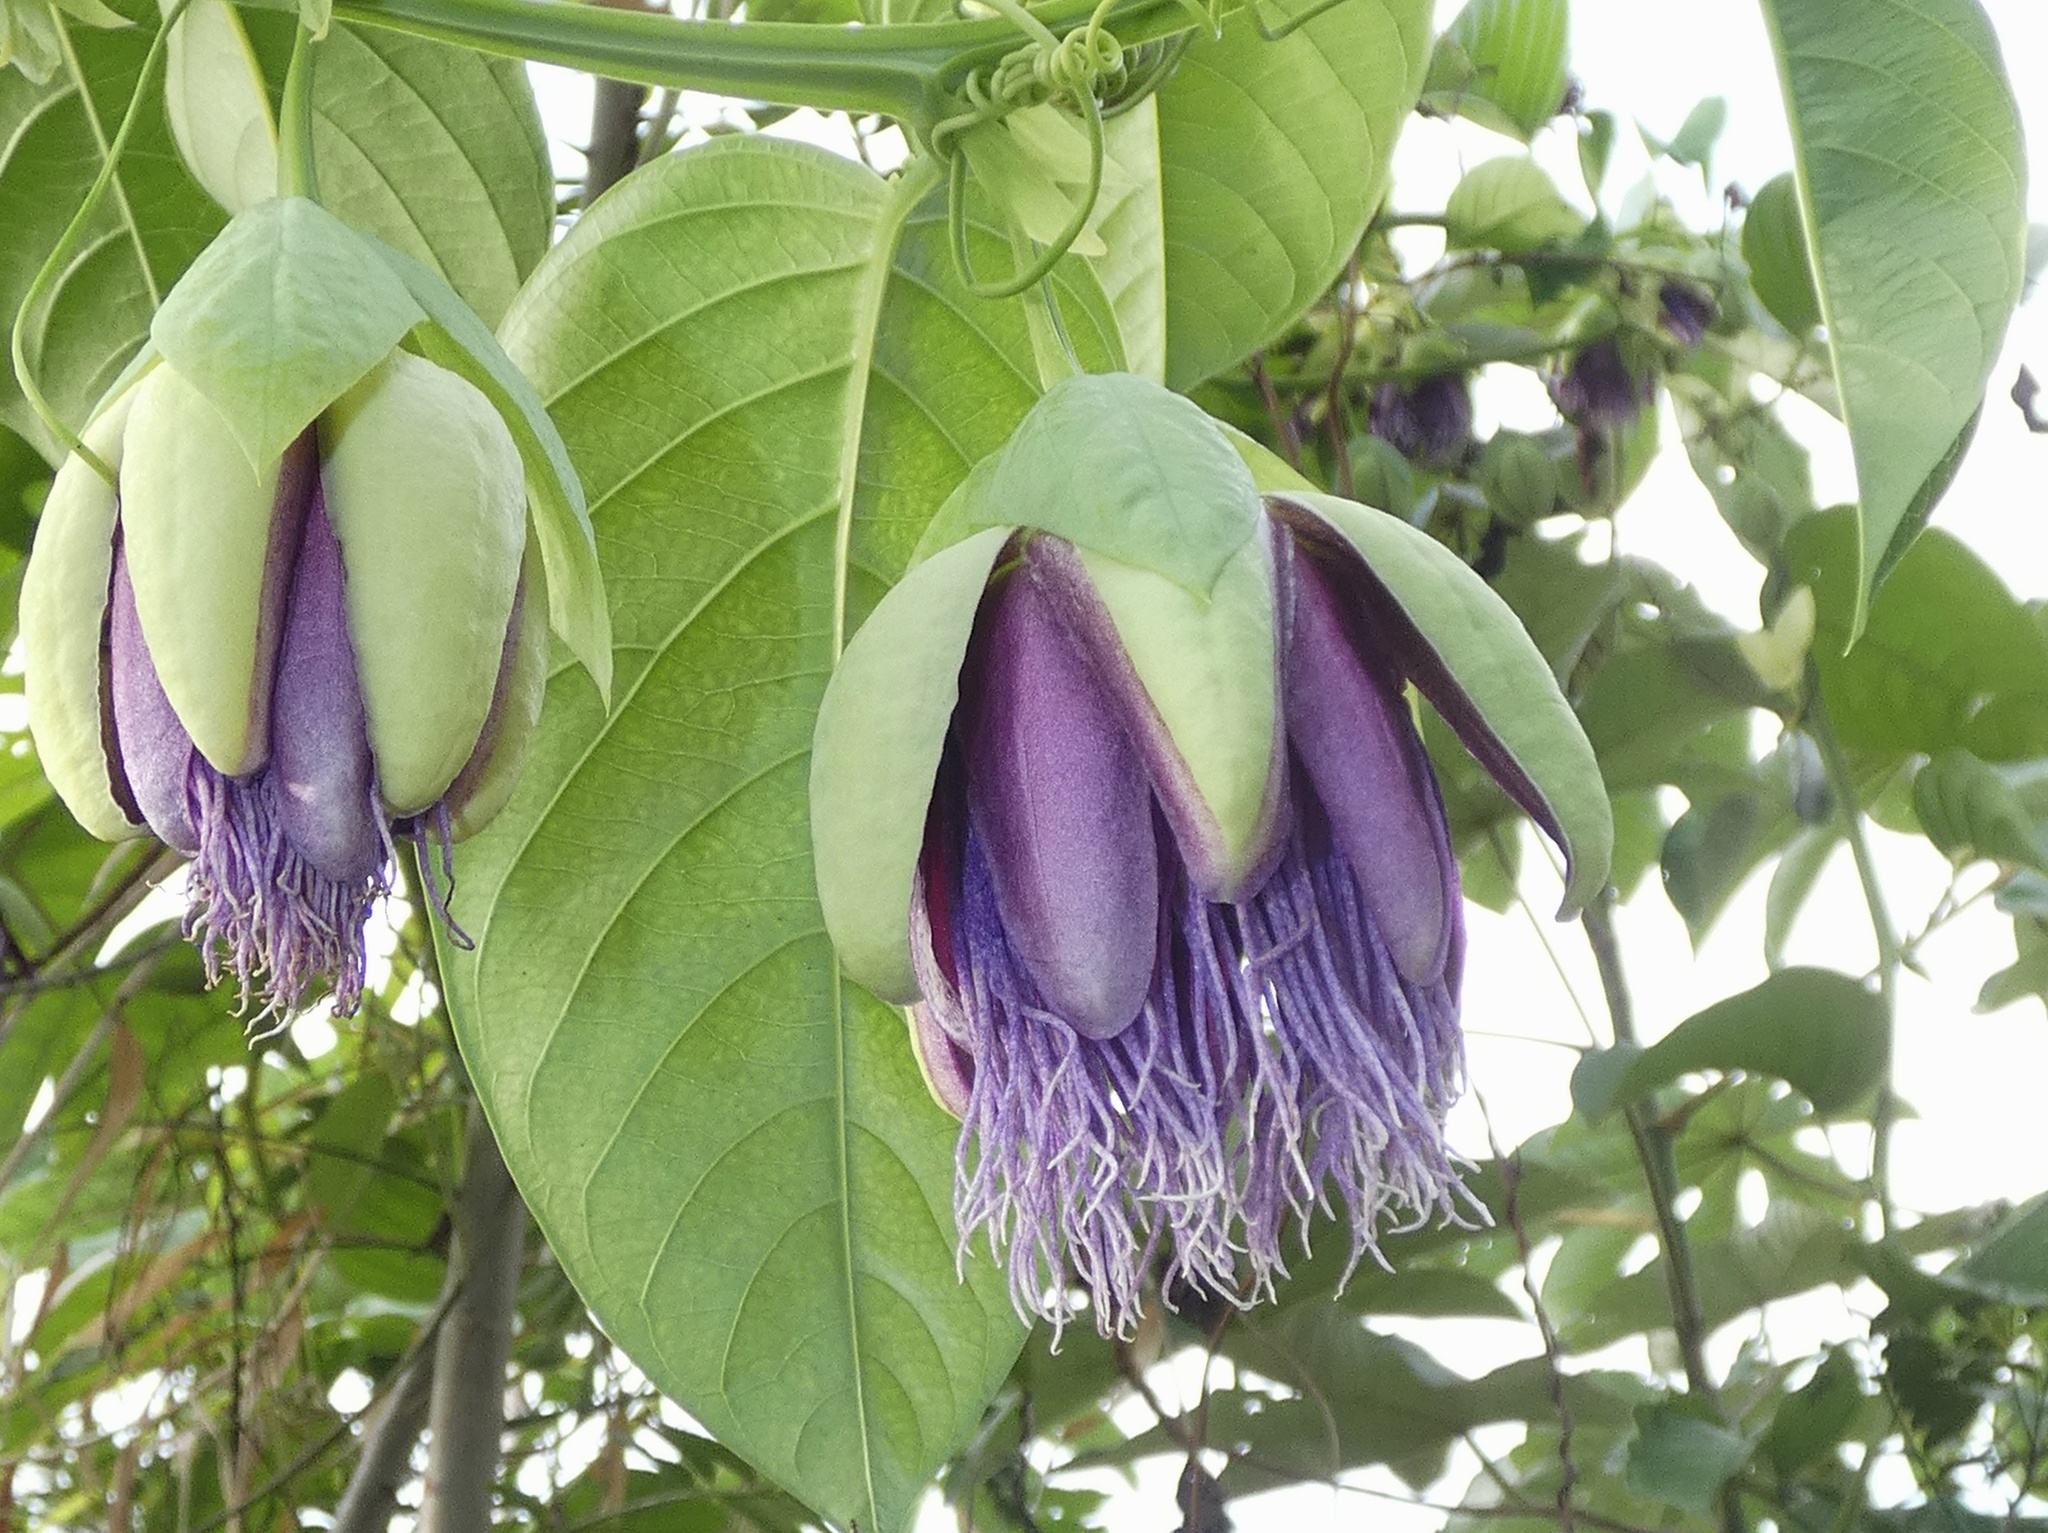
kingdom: Plantae
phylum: Tracheophyta
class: Magnoliopsida
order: Malpighiales
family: Passifloraceae
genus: Passiflora
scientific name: Passiflora quadrangularis
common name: Giant granadilla
